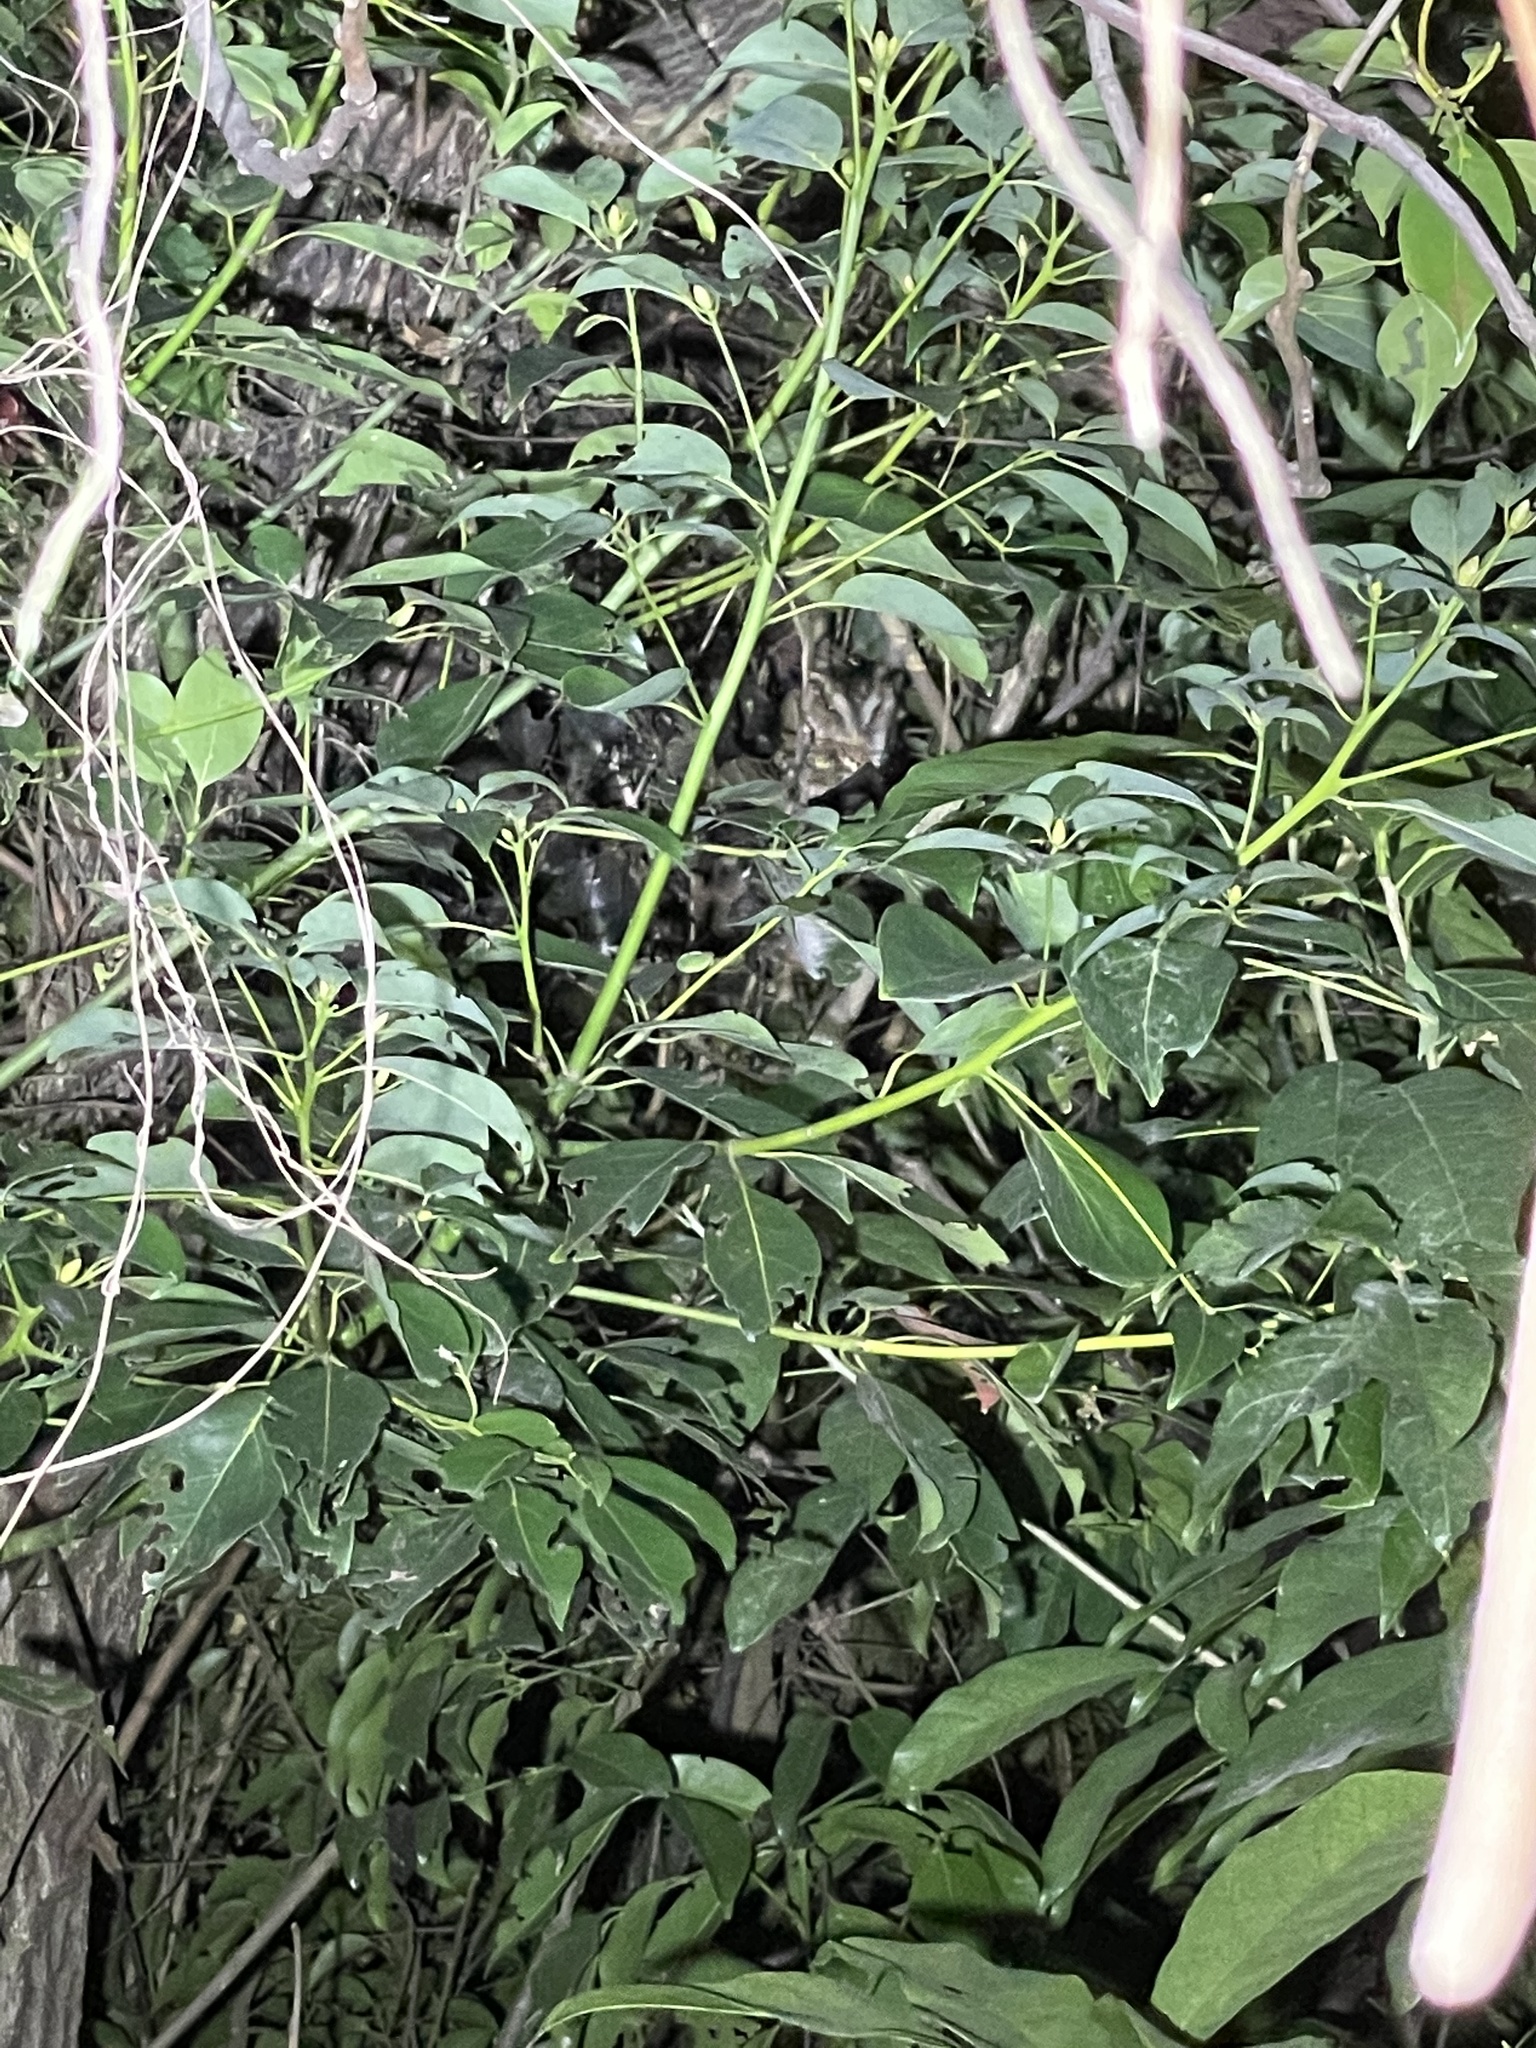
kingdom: Animalia
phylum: Chordata
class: Aves
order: Strigiformes
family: Strigidae
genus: Otus
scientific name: Otus lettia
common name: Collared scops owl
